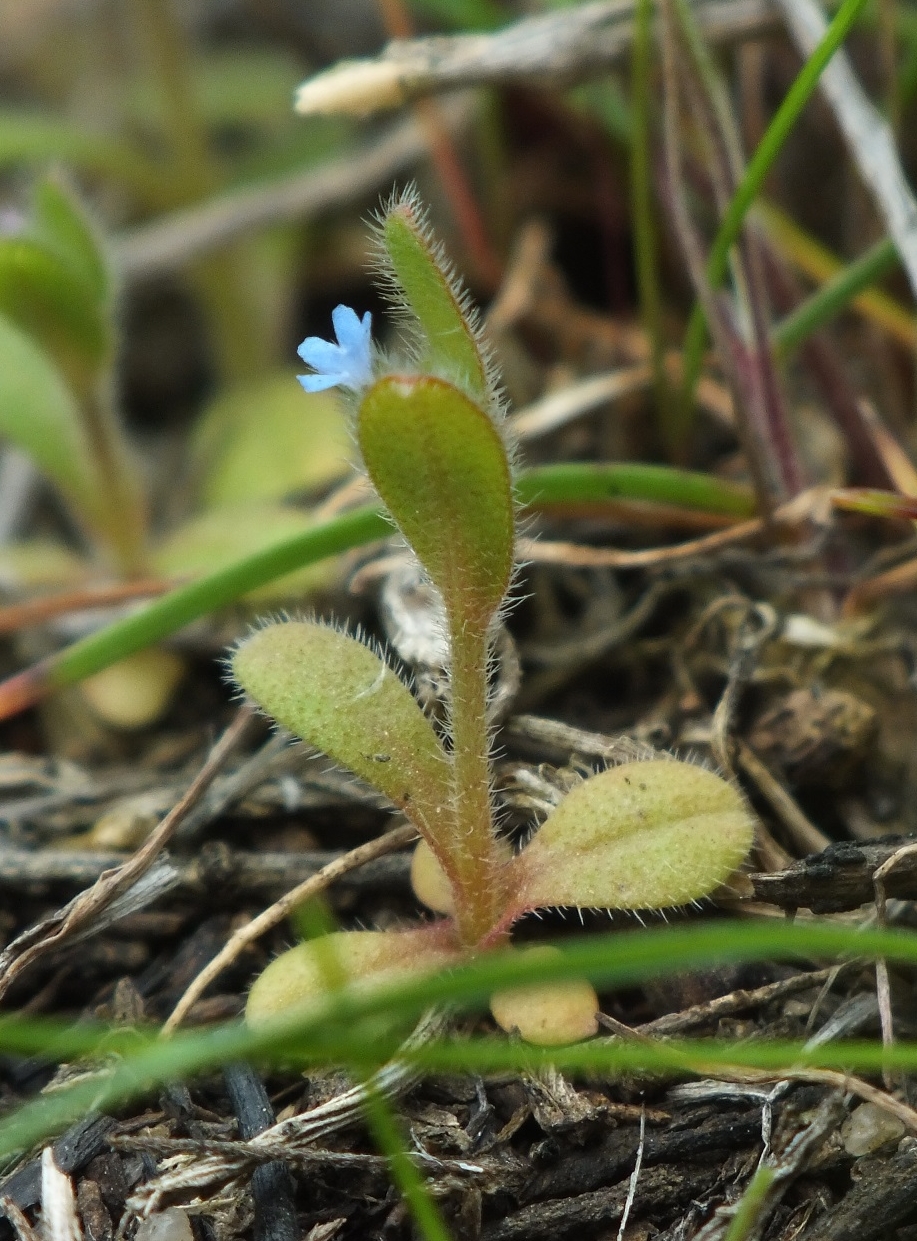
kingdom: Plantae
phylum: Tracheophyta
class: Magnoliopsida
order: Boraginales
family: Boraginaceae
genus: Myosotis
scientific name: Myosotis stricta
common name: Strict forget-me-not
